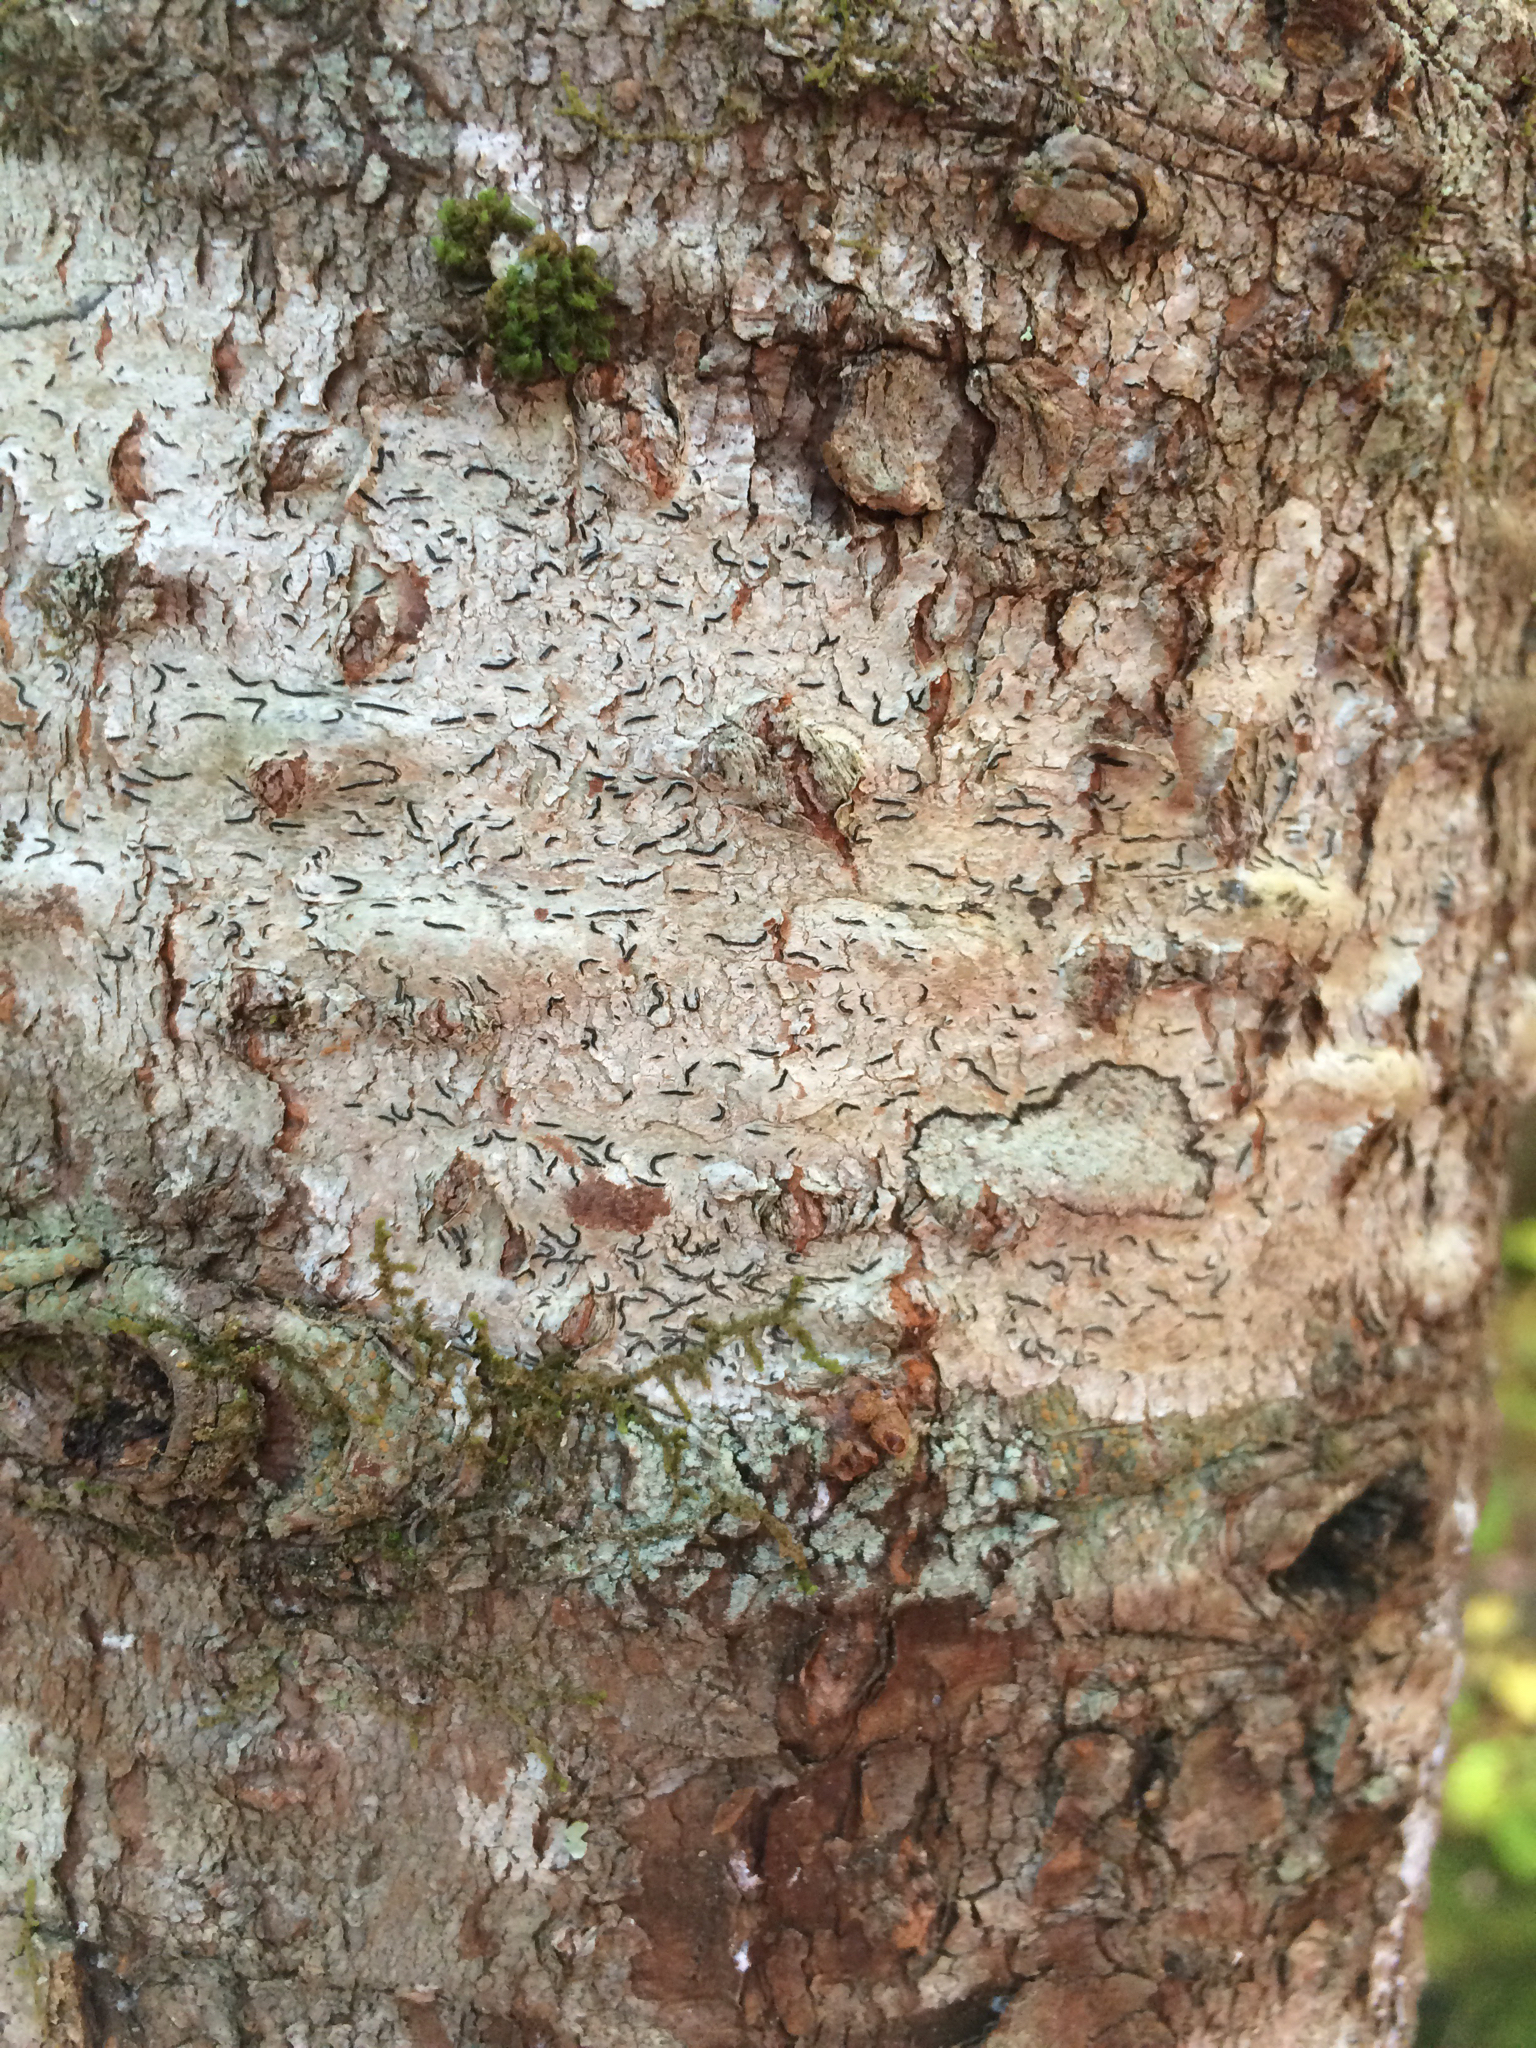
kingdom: Fungi
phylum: Ascomycota
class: Lecanoromycetes
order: Ostropales
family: Graphidaceae
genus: Graphis
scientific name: Graphis scripta
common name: Script lichen
